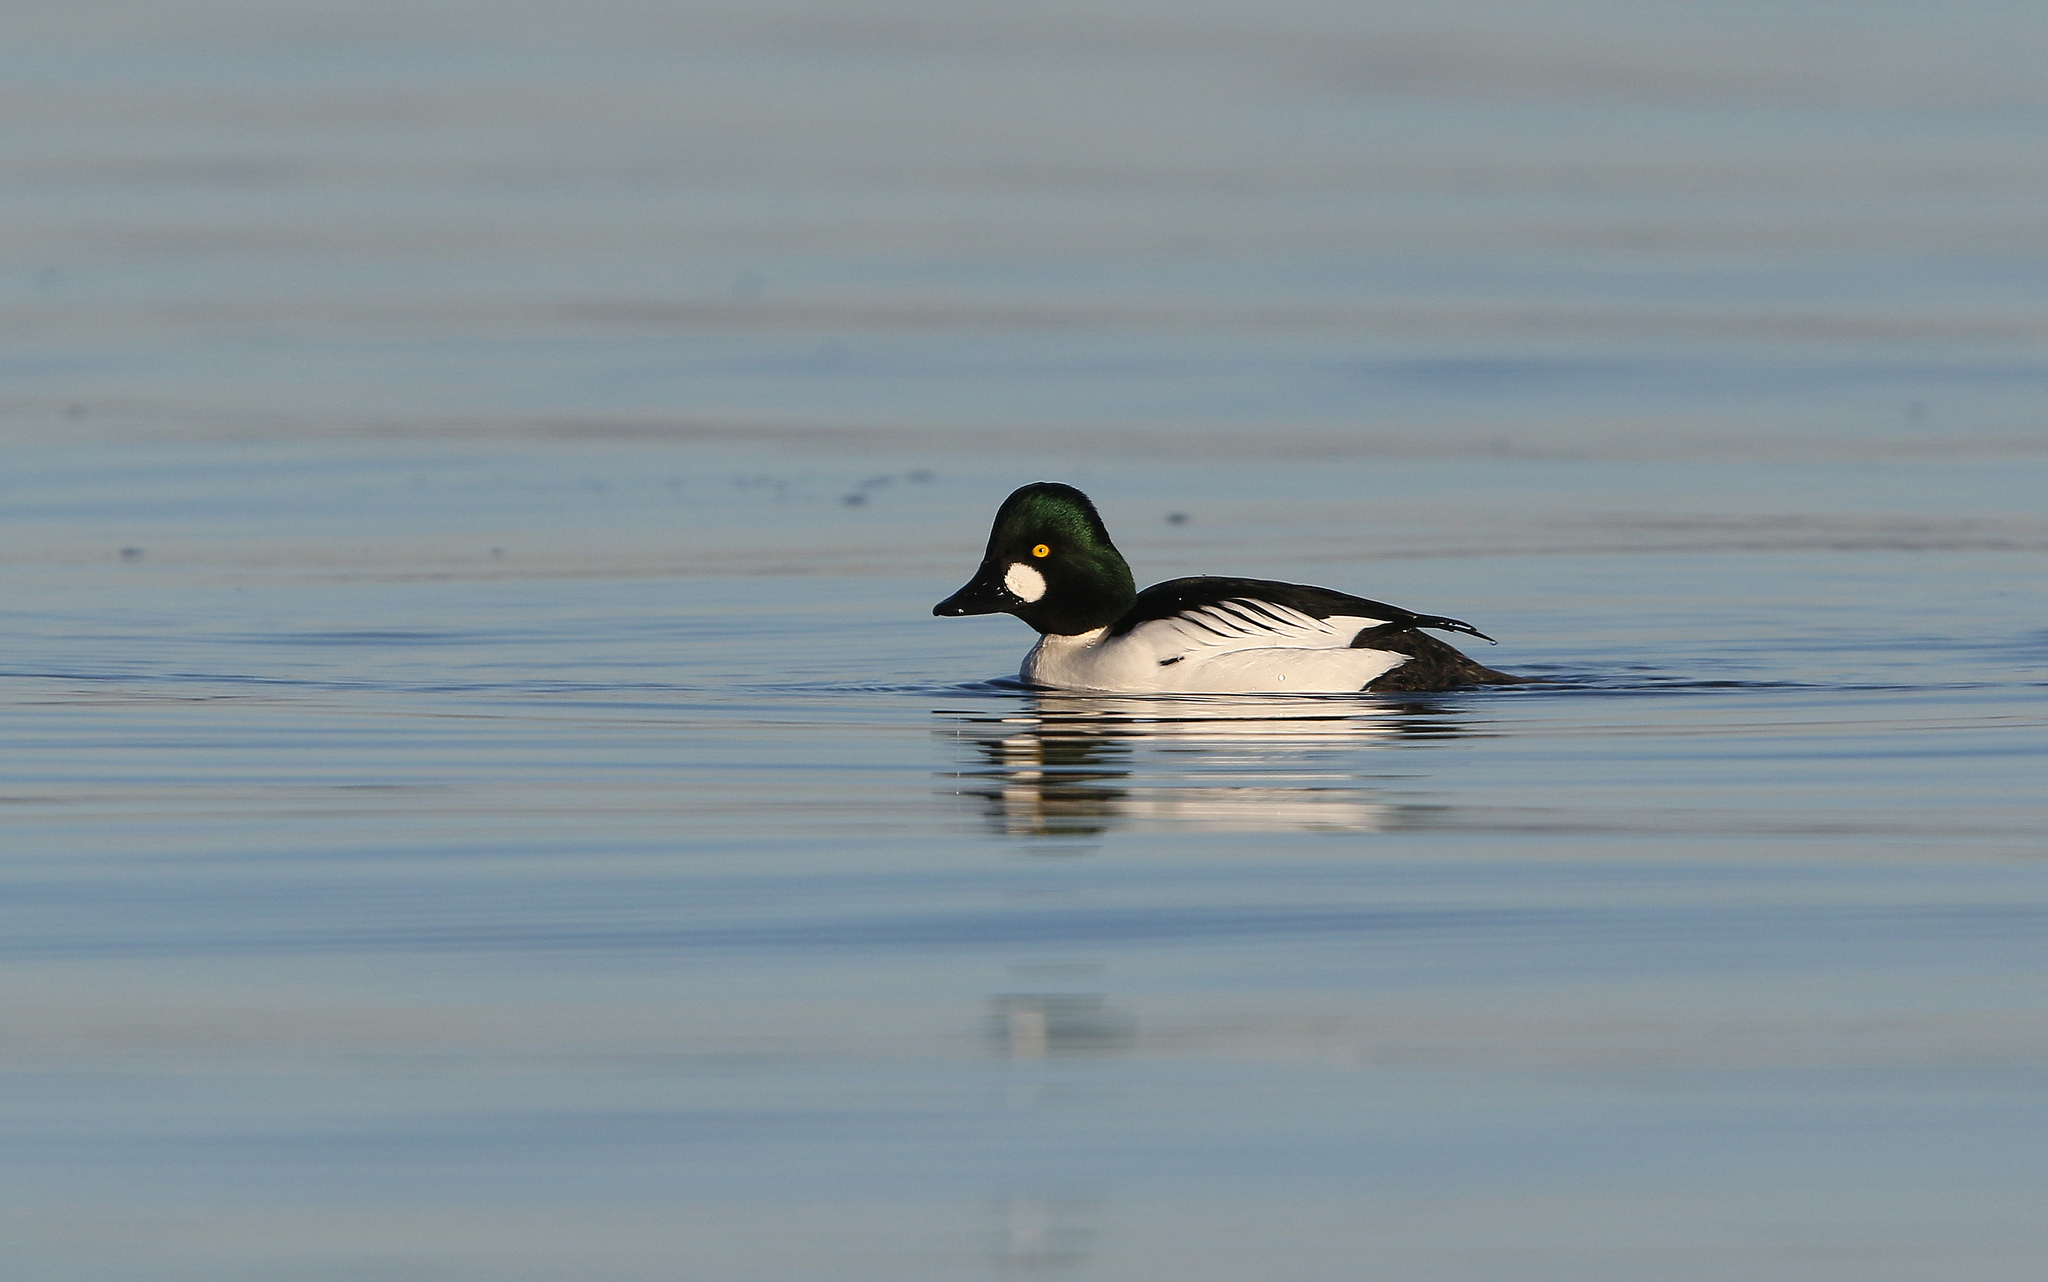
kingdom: Animalia
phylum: Chordata
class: Aves
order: Anseriformes
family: Anatidae
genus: Bucephala
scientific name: Bucephala clangula
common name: Common goldeneye
